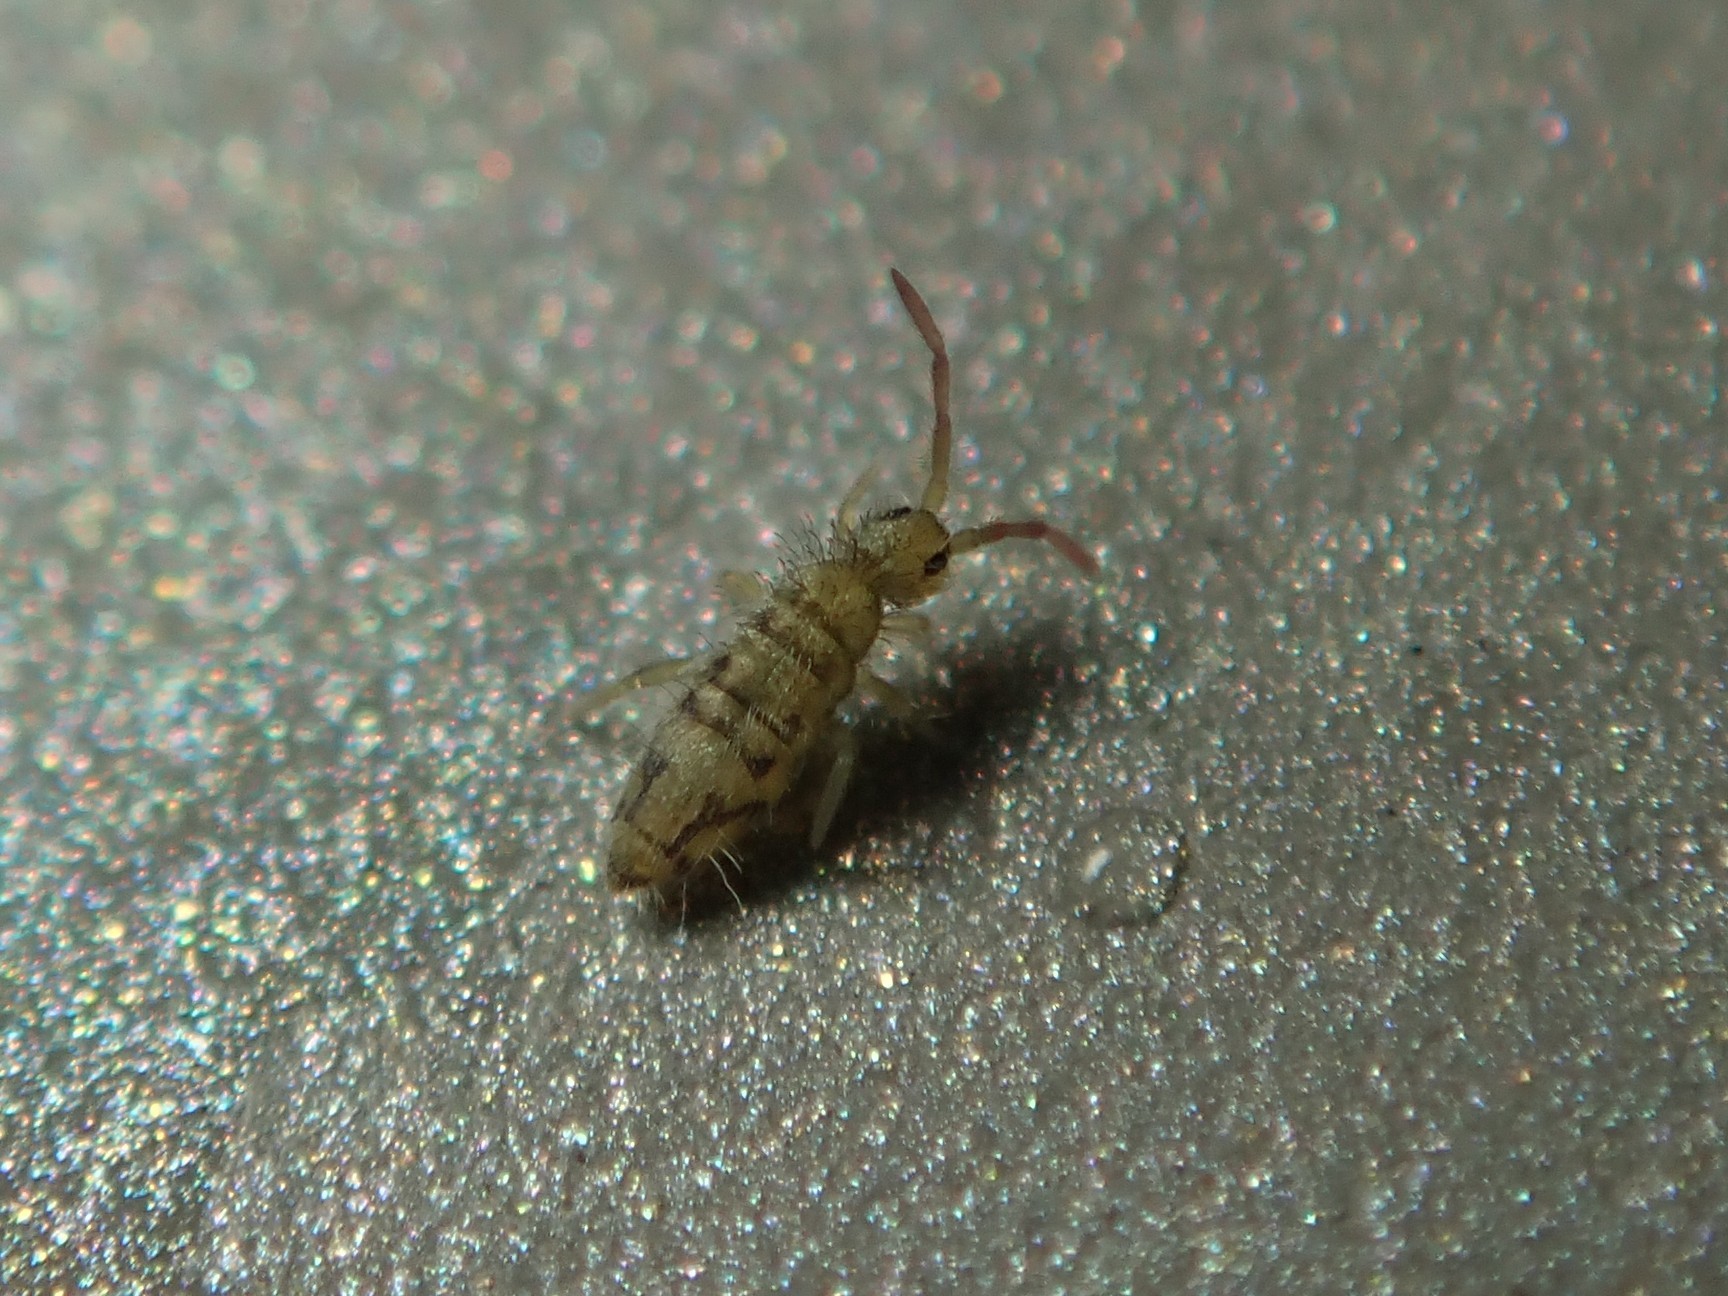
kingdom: Animalia
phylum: Arthropoda
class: Collembola
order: Entomobryomorpha
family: Entomobryidae
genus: Entomobrya
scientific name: Entomobrya nivalis
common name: Cosmopolitan springtail
